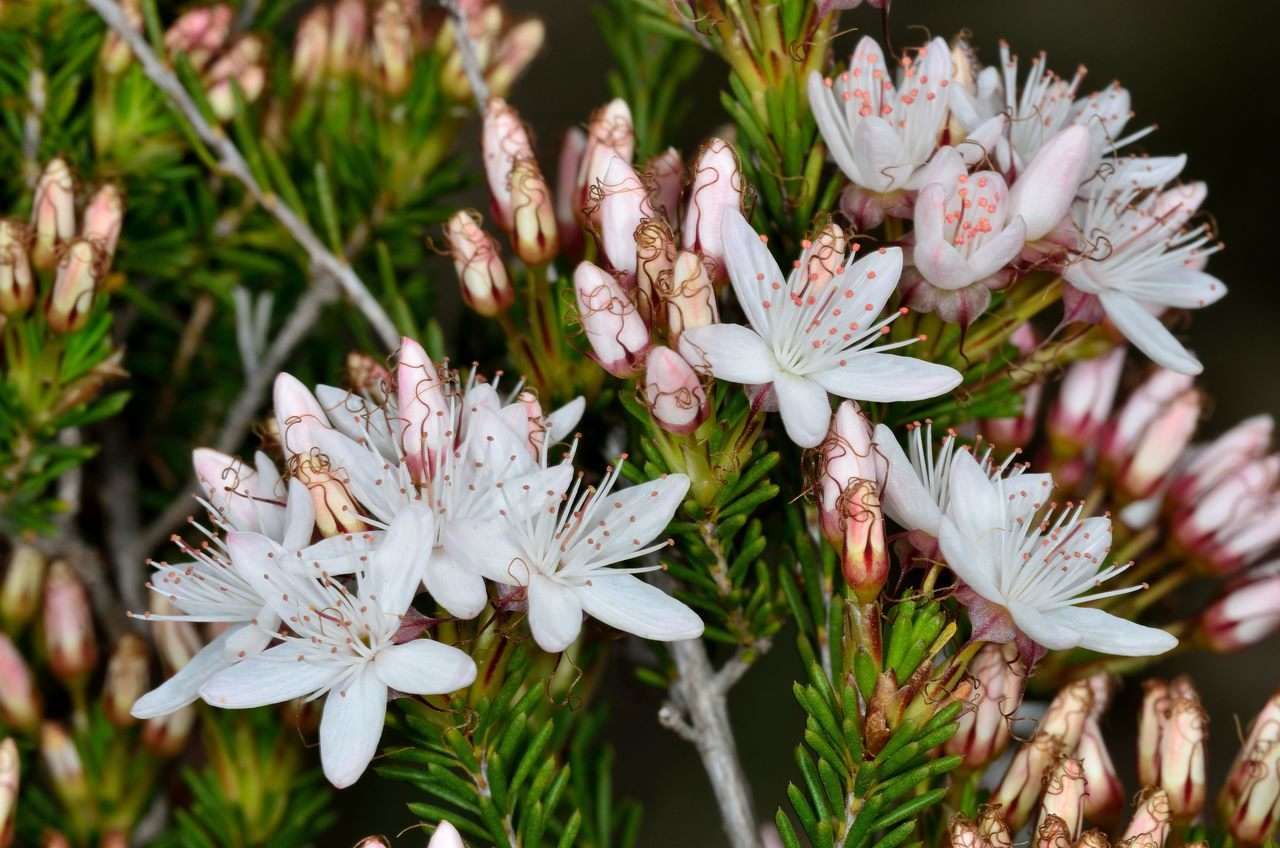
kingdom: Plantae
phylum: Tracheophyta
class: Magnoliopsida
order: Myrtales
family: Myrtaceae
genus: Calytrix
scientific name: Calytrix tetragona
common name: Common fringe myrtle
